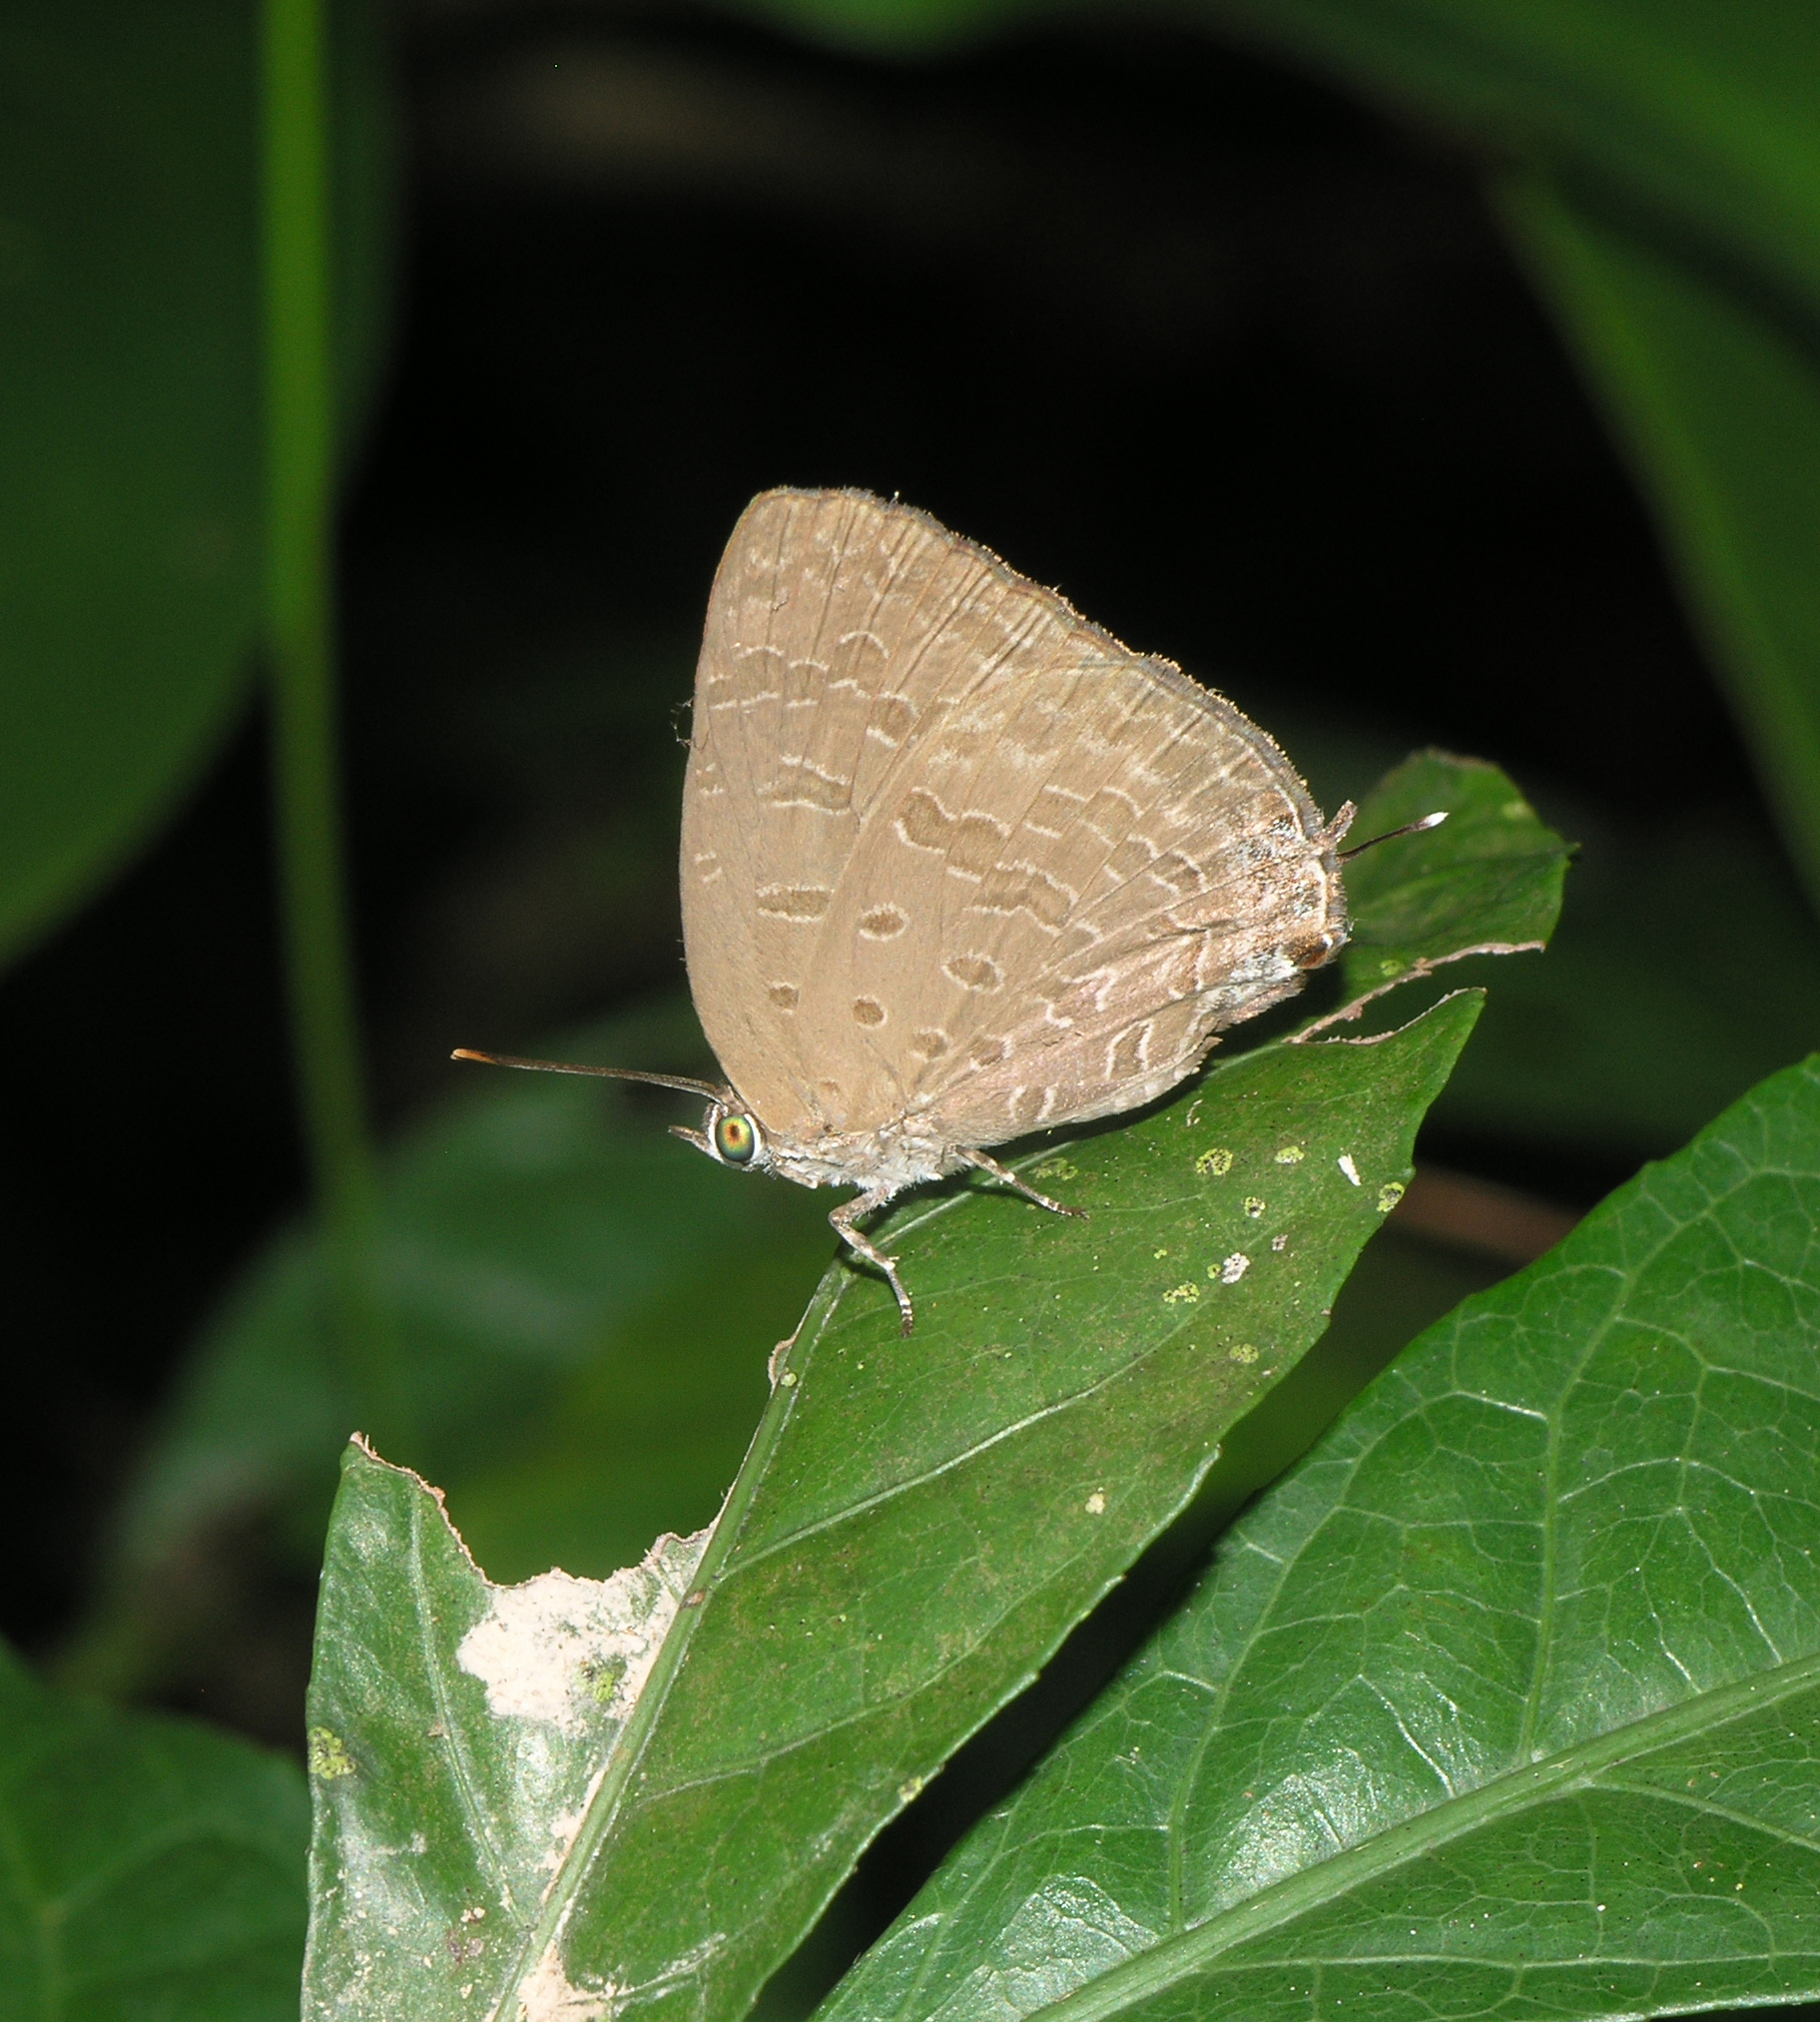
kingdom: Animalia
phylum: Arthropoda
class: Insecta
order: Lepidoptera
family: Lycaenidae
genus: Arhopala
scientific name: Arhopala elopura
